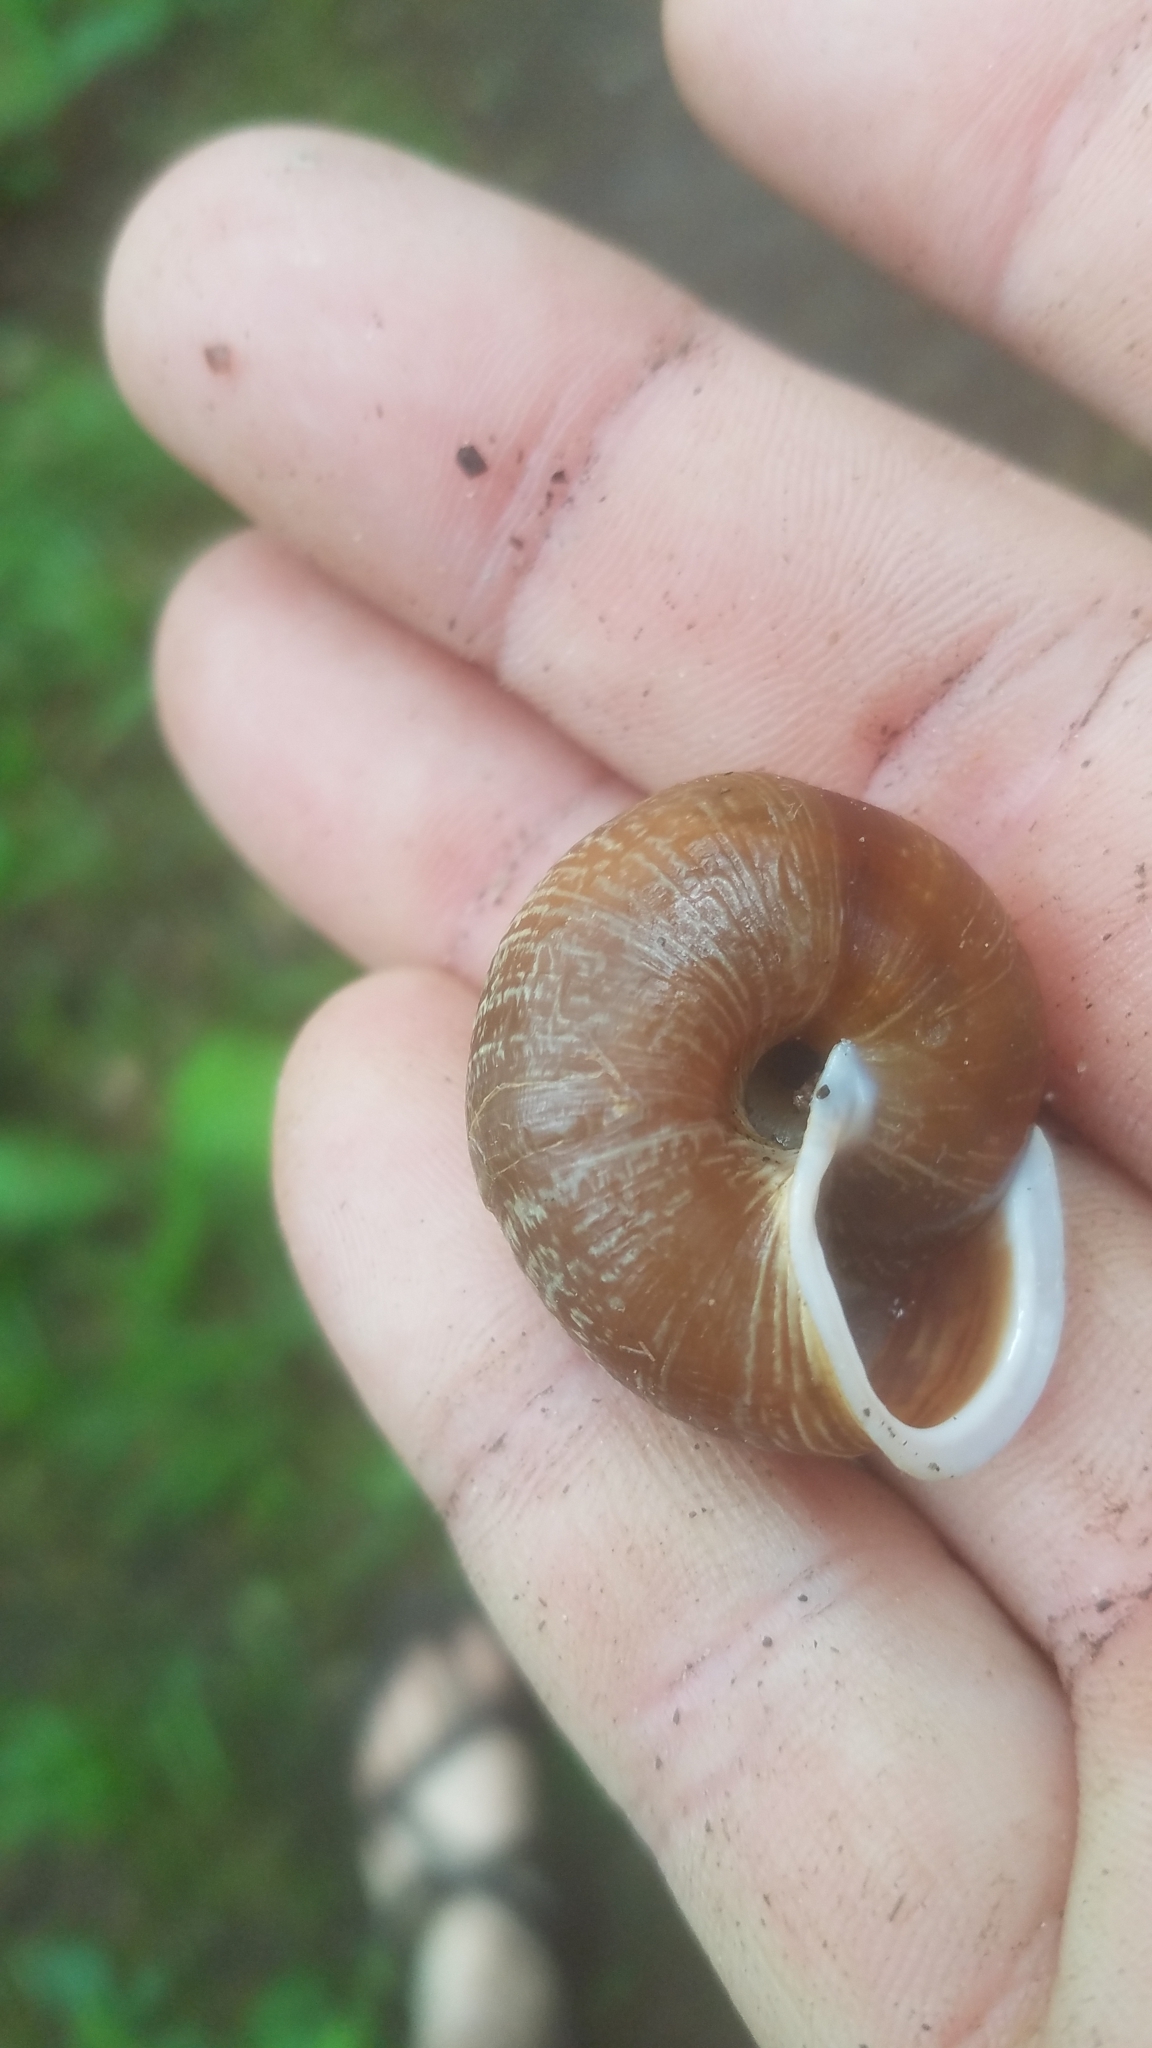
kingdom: Animalia
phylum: Mollusca
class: Gastropoda
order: Stylommatophora
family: Polygyridae
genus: Allogona
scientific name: Allogona townsendiana
